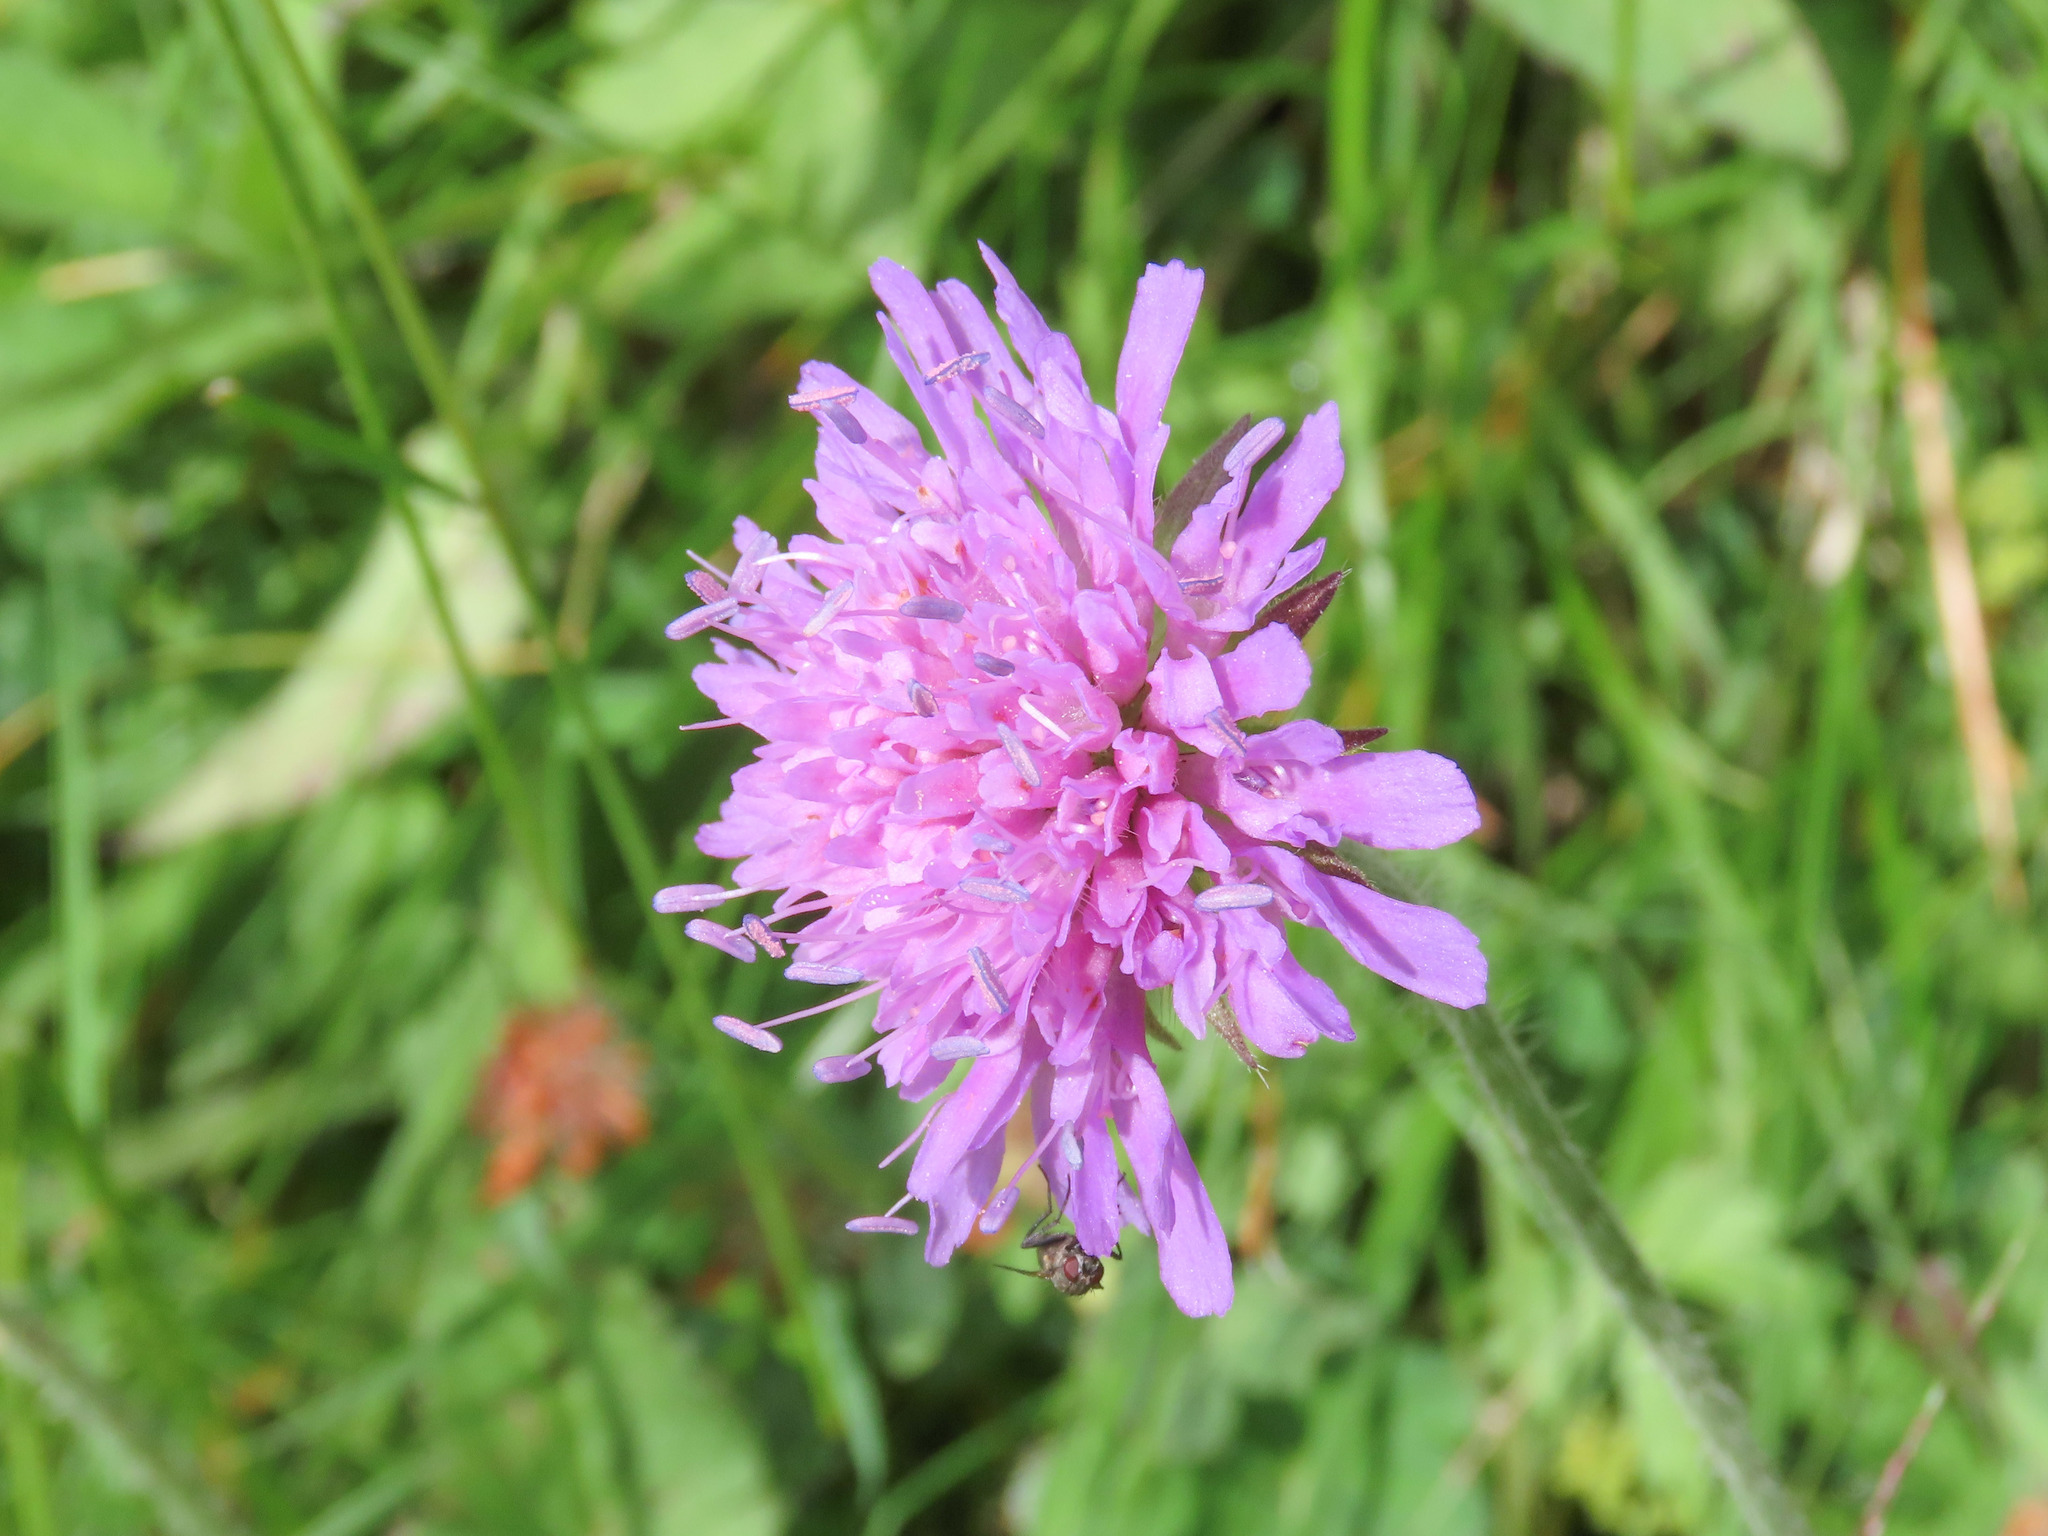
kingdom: Plantae
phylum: Tracheophyta
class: Magnoliopsida
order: Dipsacales
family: Caprifoliaceae
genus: Knautia
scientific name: Knautia dipsacifolia
